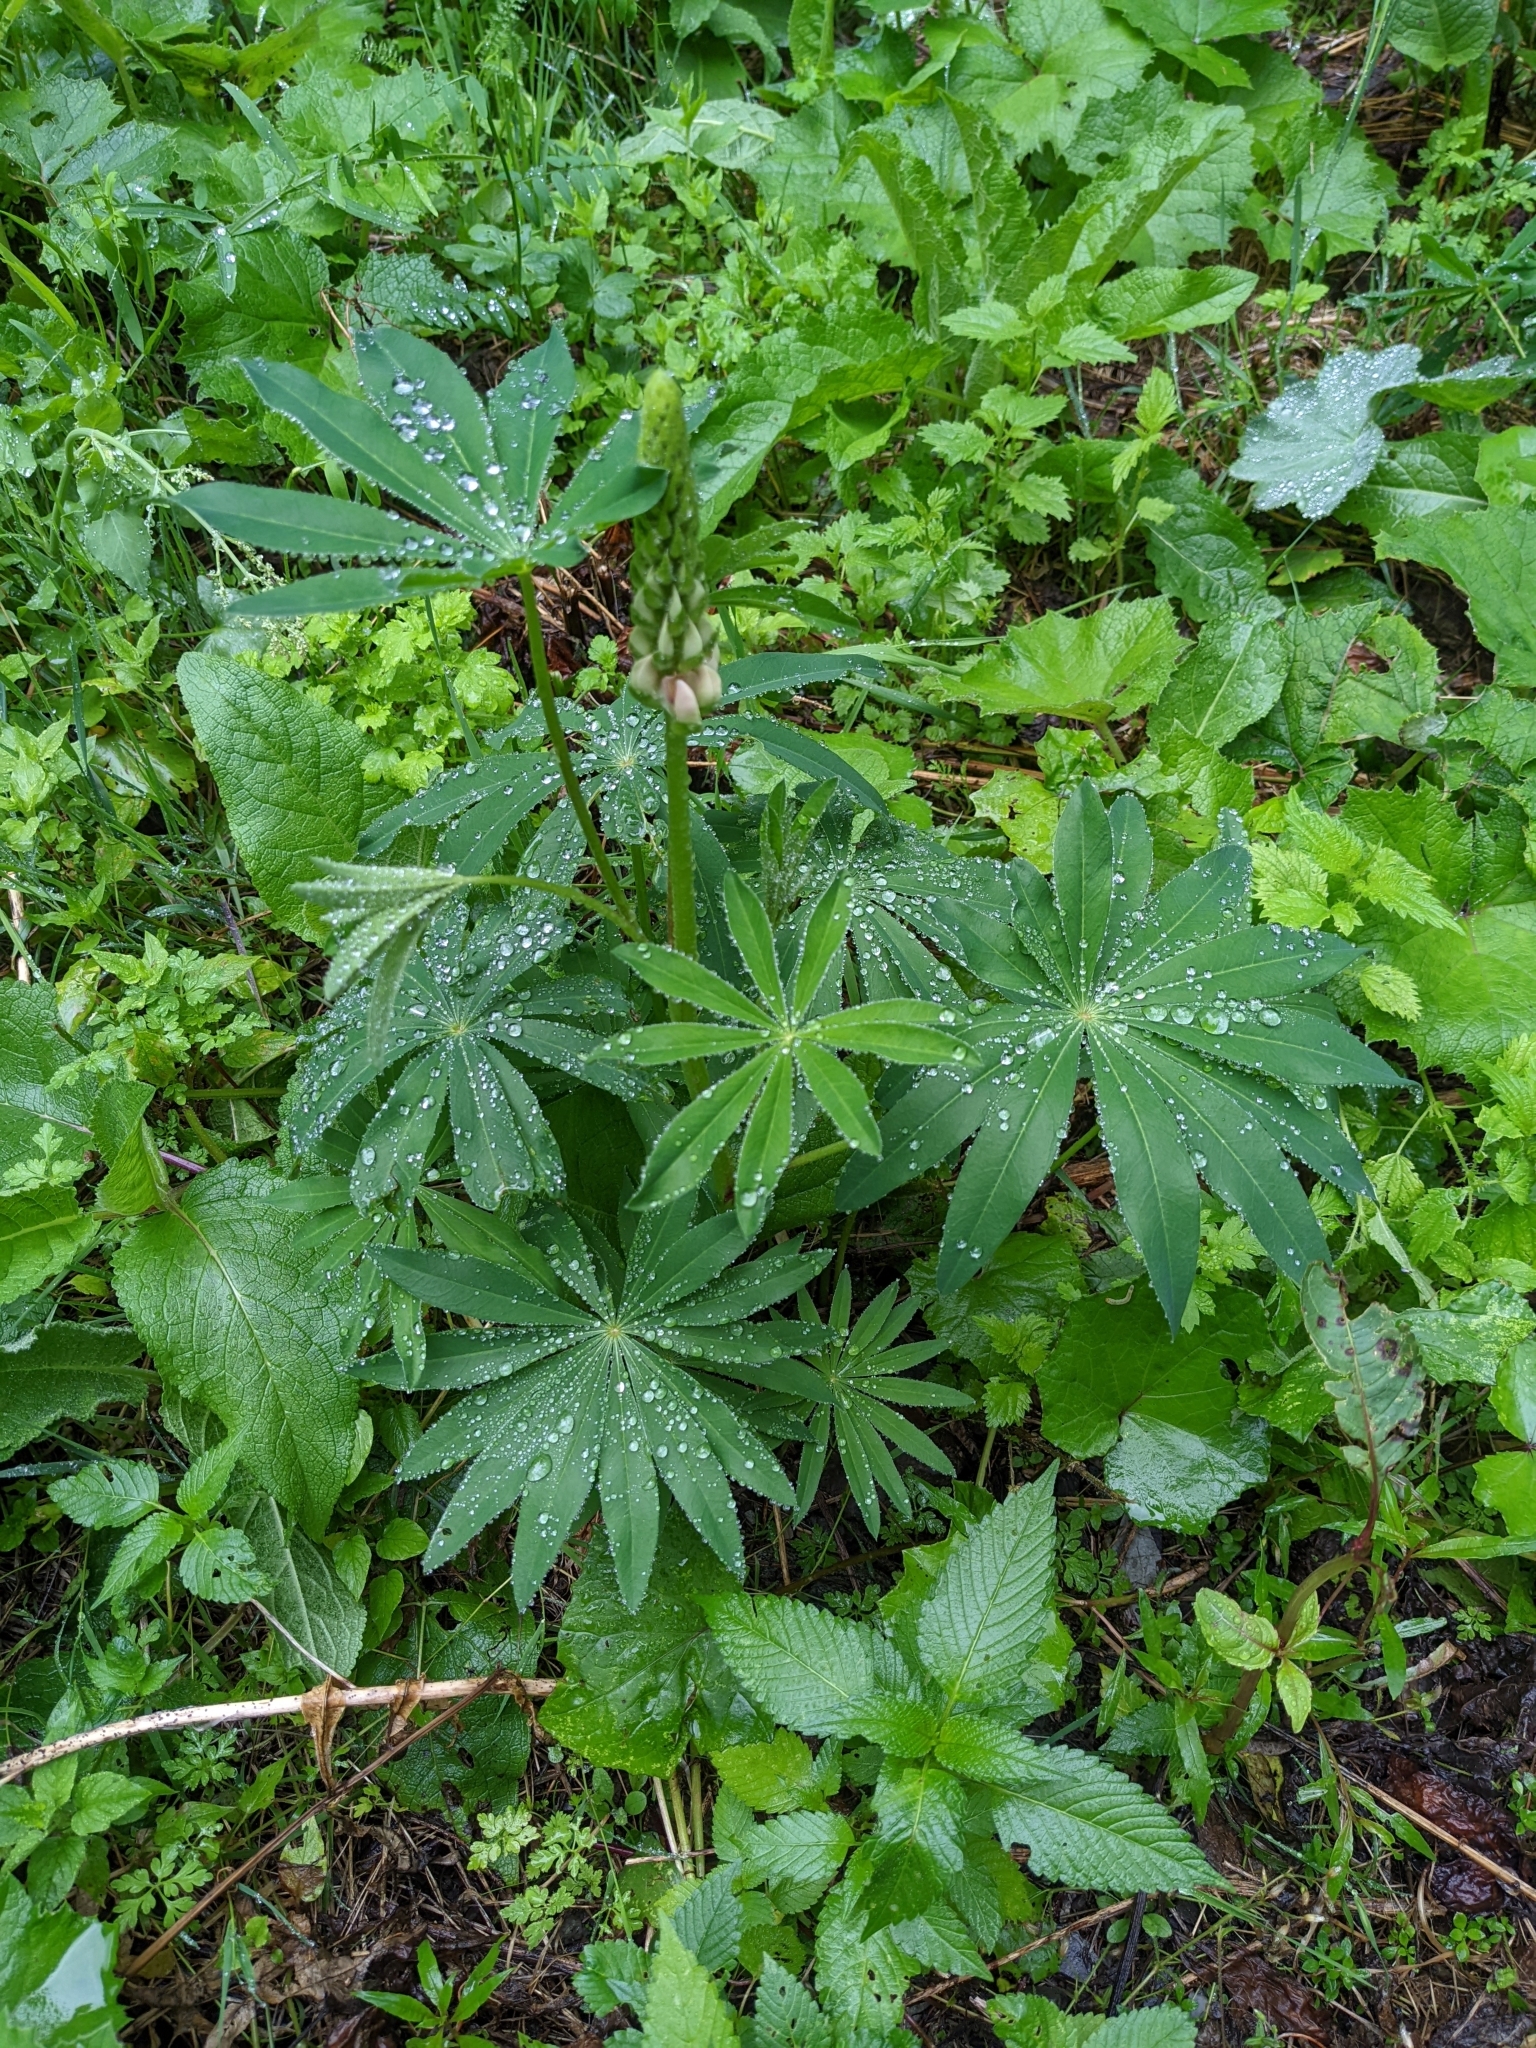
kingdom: Plantae
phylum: Tracheophyta
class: Magnoliopsida
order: Fabales
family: Fabaceae
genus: Lupinus
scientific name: Lupinus polyphyllus
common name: Garden lupin
